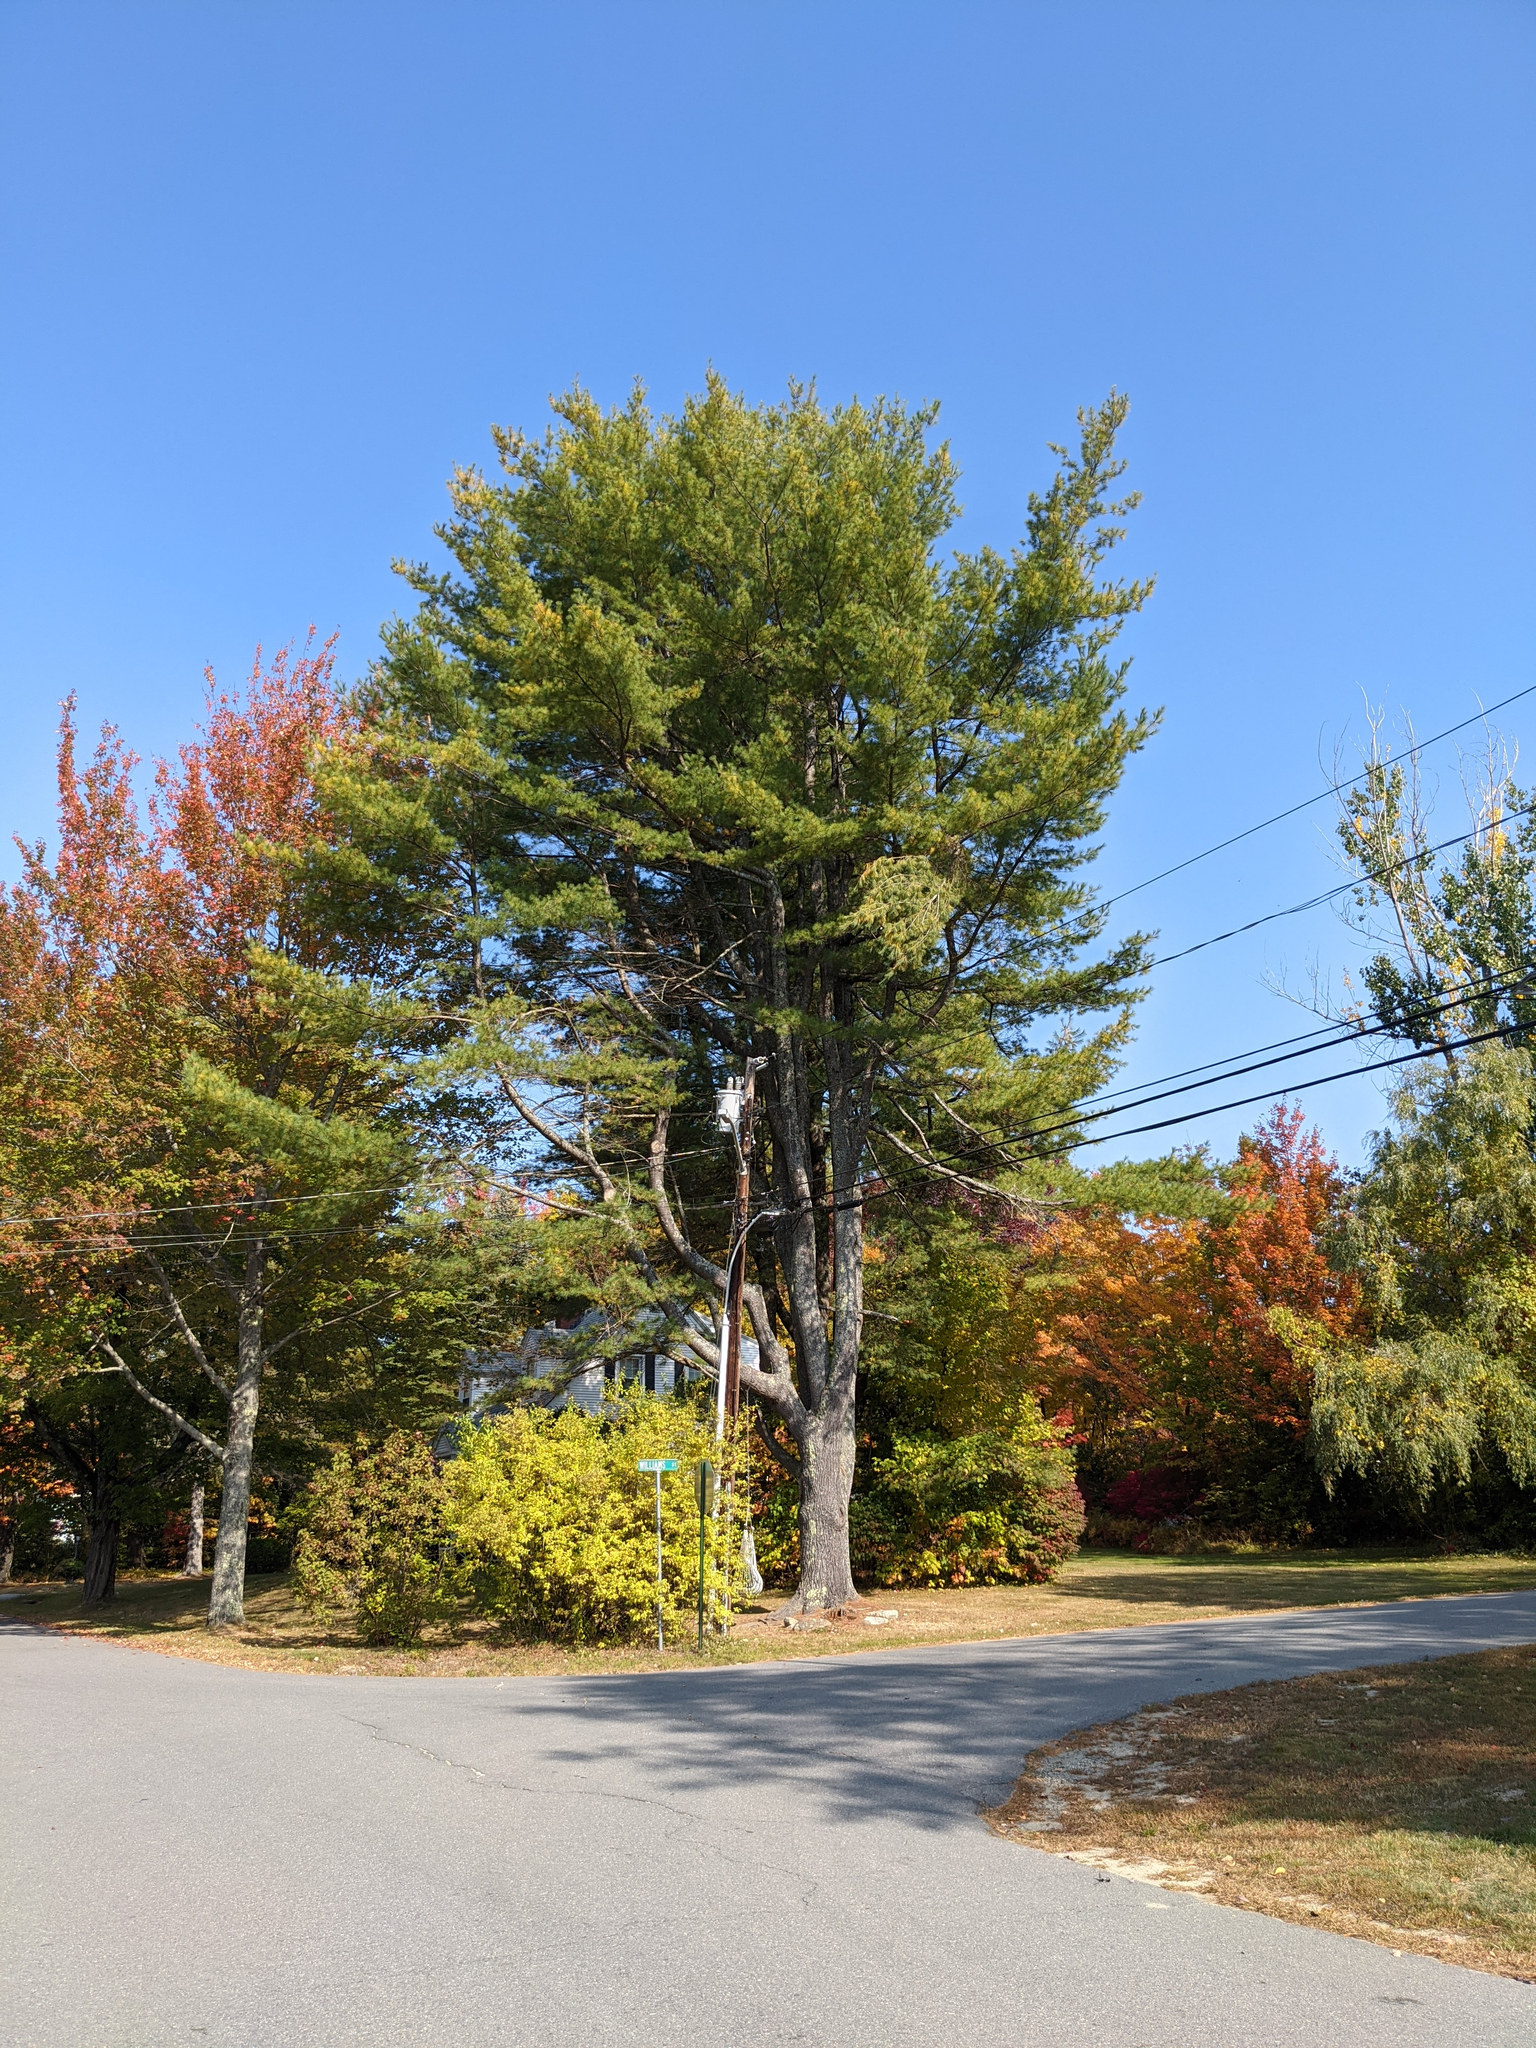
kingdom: Plantae
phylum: Tracheophyta
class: Pinopsida
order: Pinales
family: Pinaceae
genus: Pinus
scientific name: Pinus strobus
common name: Weymouth pine
